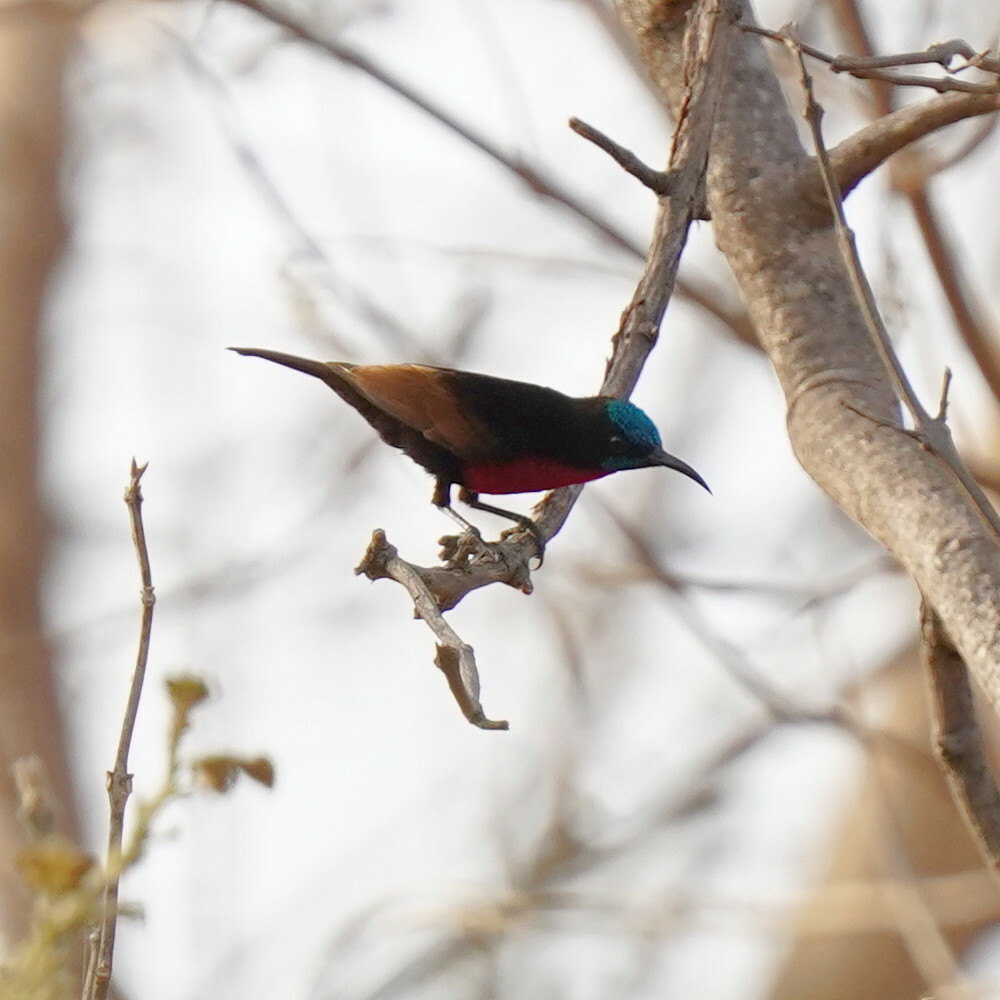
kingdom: Animalia
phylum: Chordata
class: Aves
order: Passeriformes
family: Nectariniidae
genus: Chalcomitra
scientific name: Chalcomitra senegalensis
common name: Scarlet-chested sunbird
